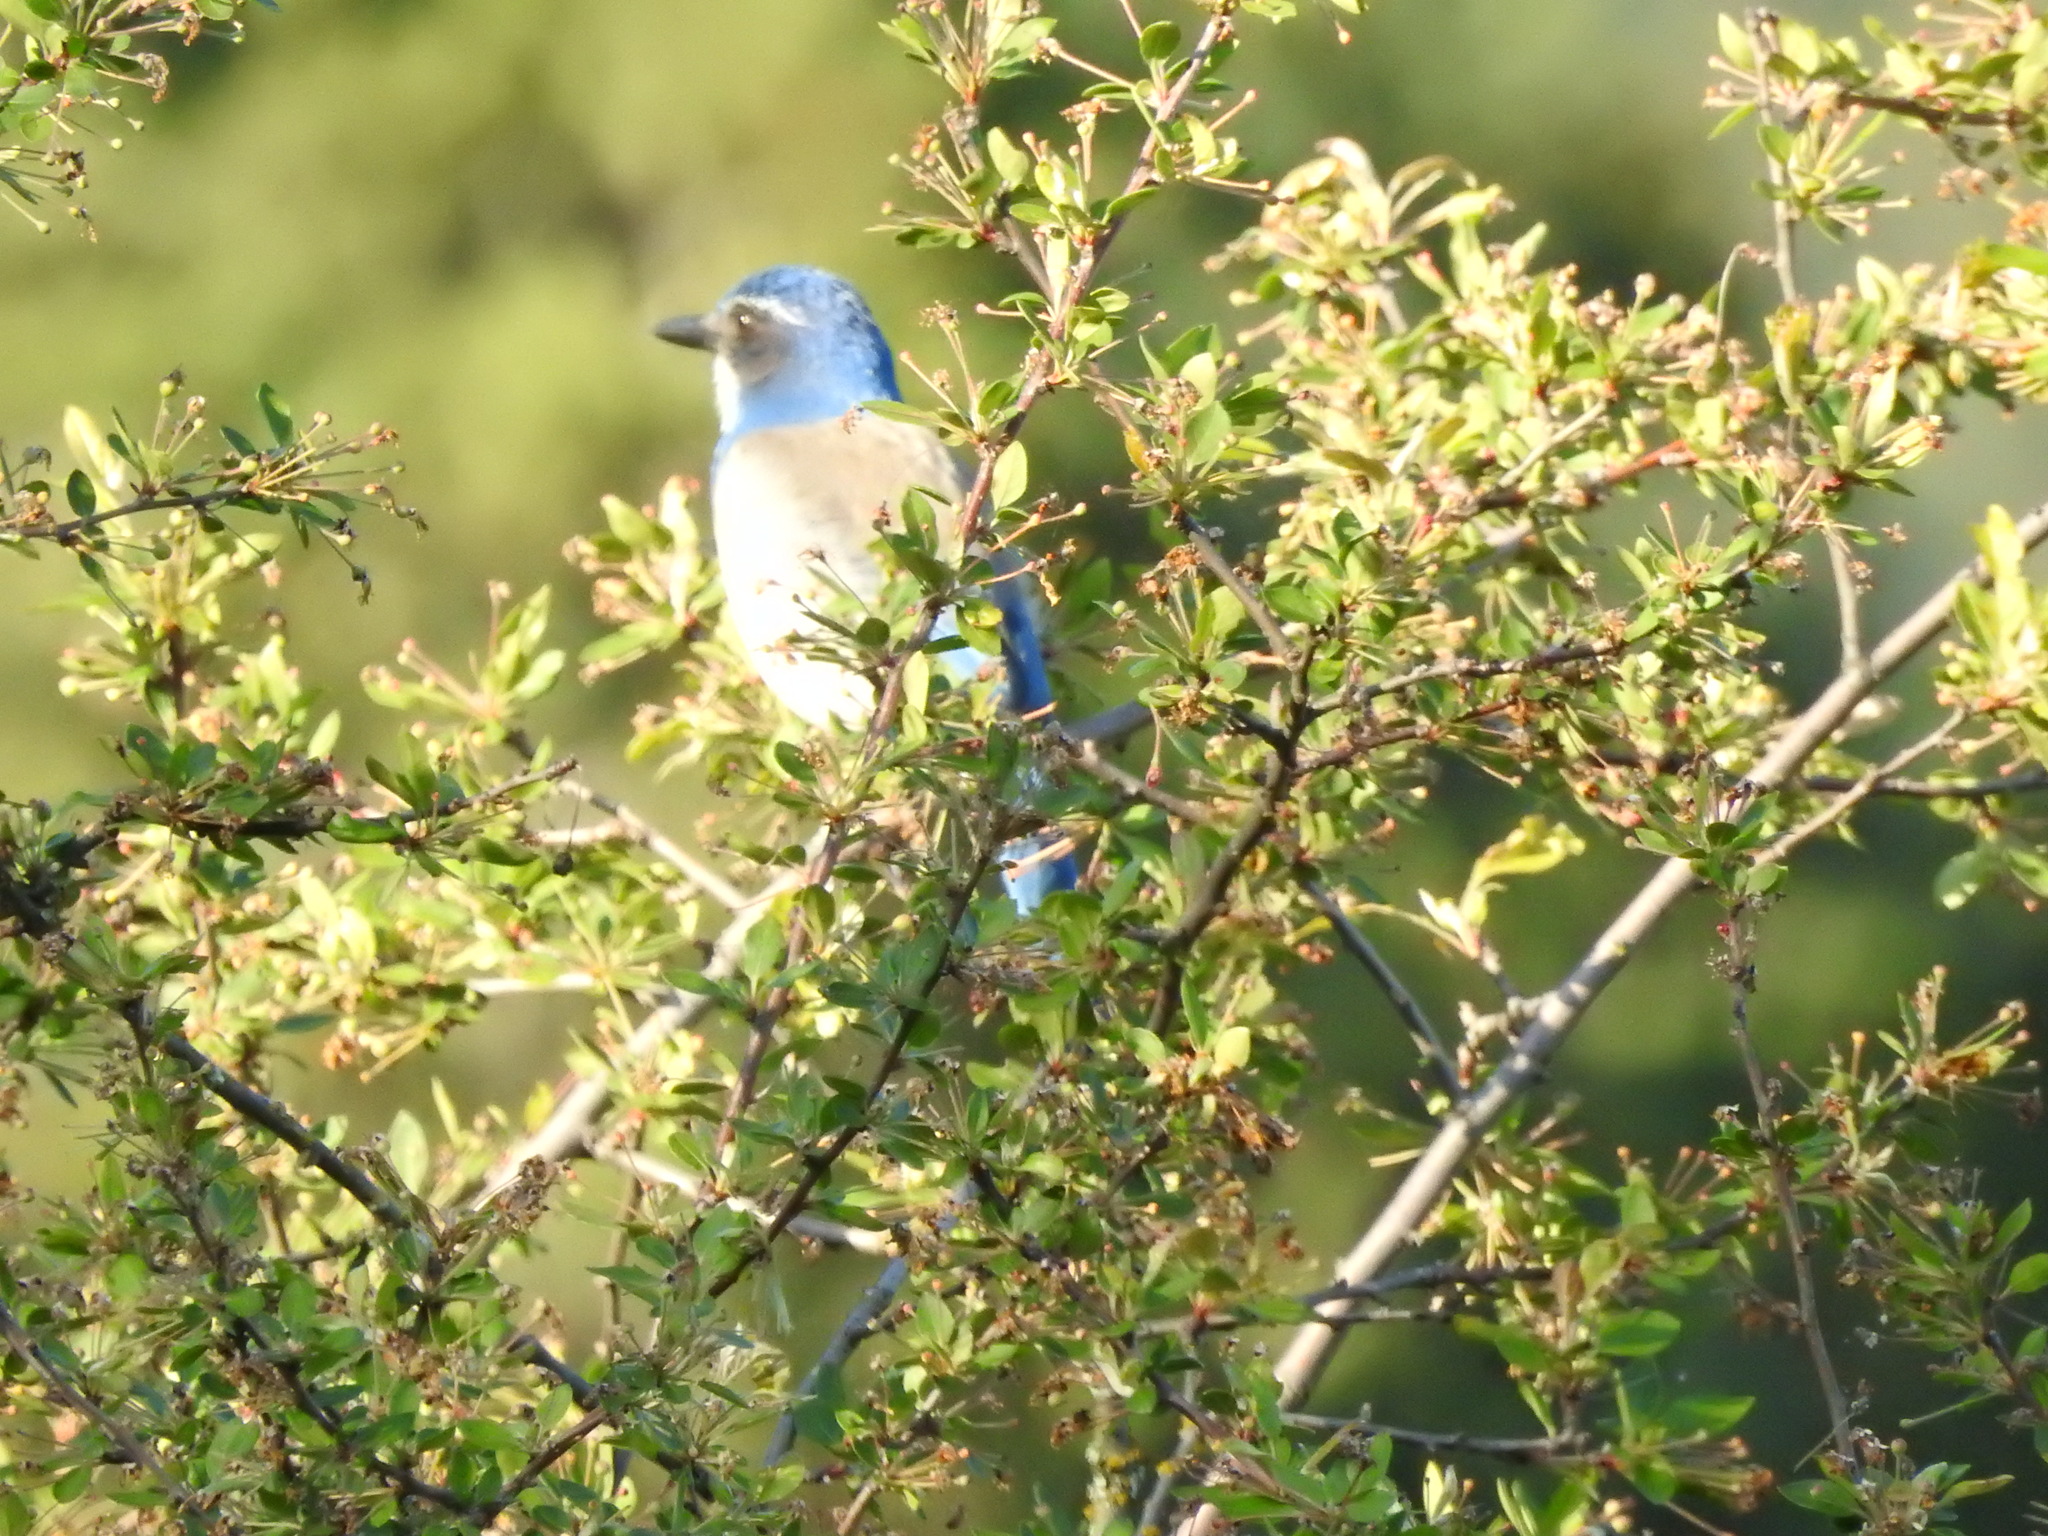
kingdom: Animalia
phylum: Chordata
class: Aves
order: Passeriformes
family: Corvidae
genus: Aphelocoma
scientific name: Aphelocoma californica
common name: California scrub-jay
